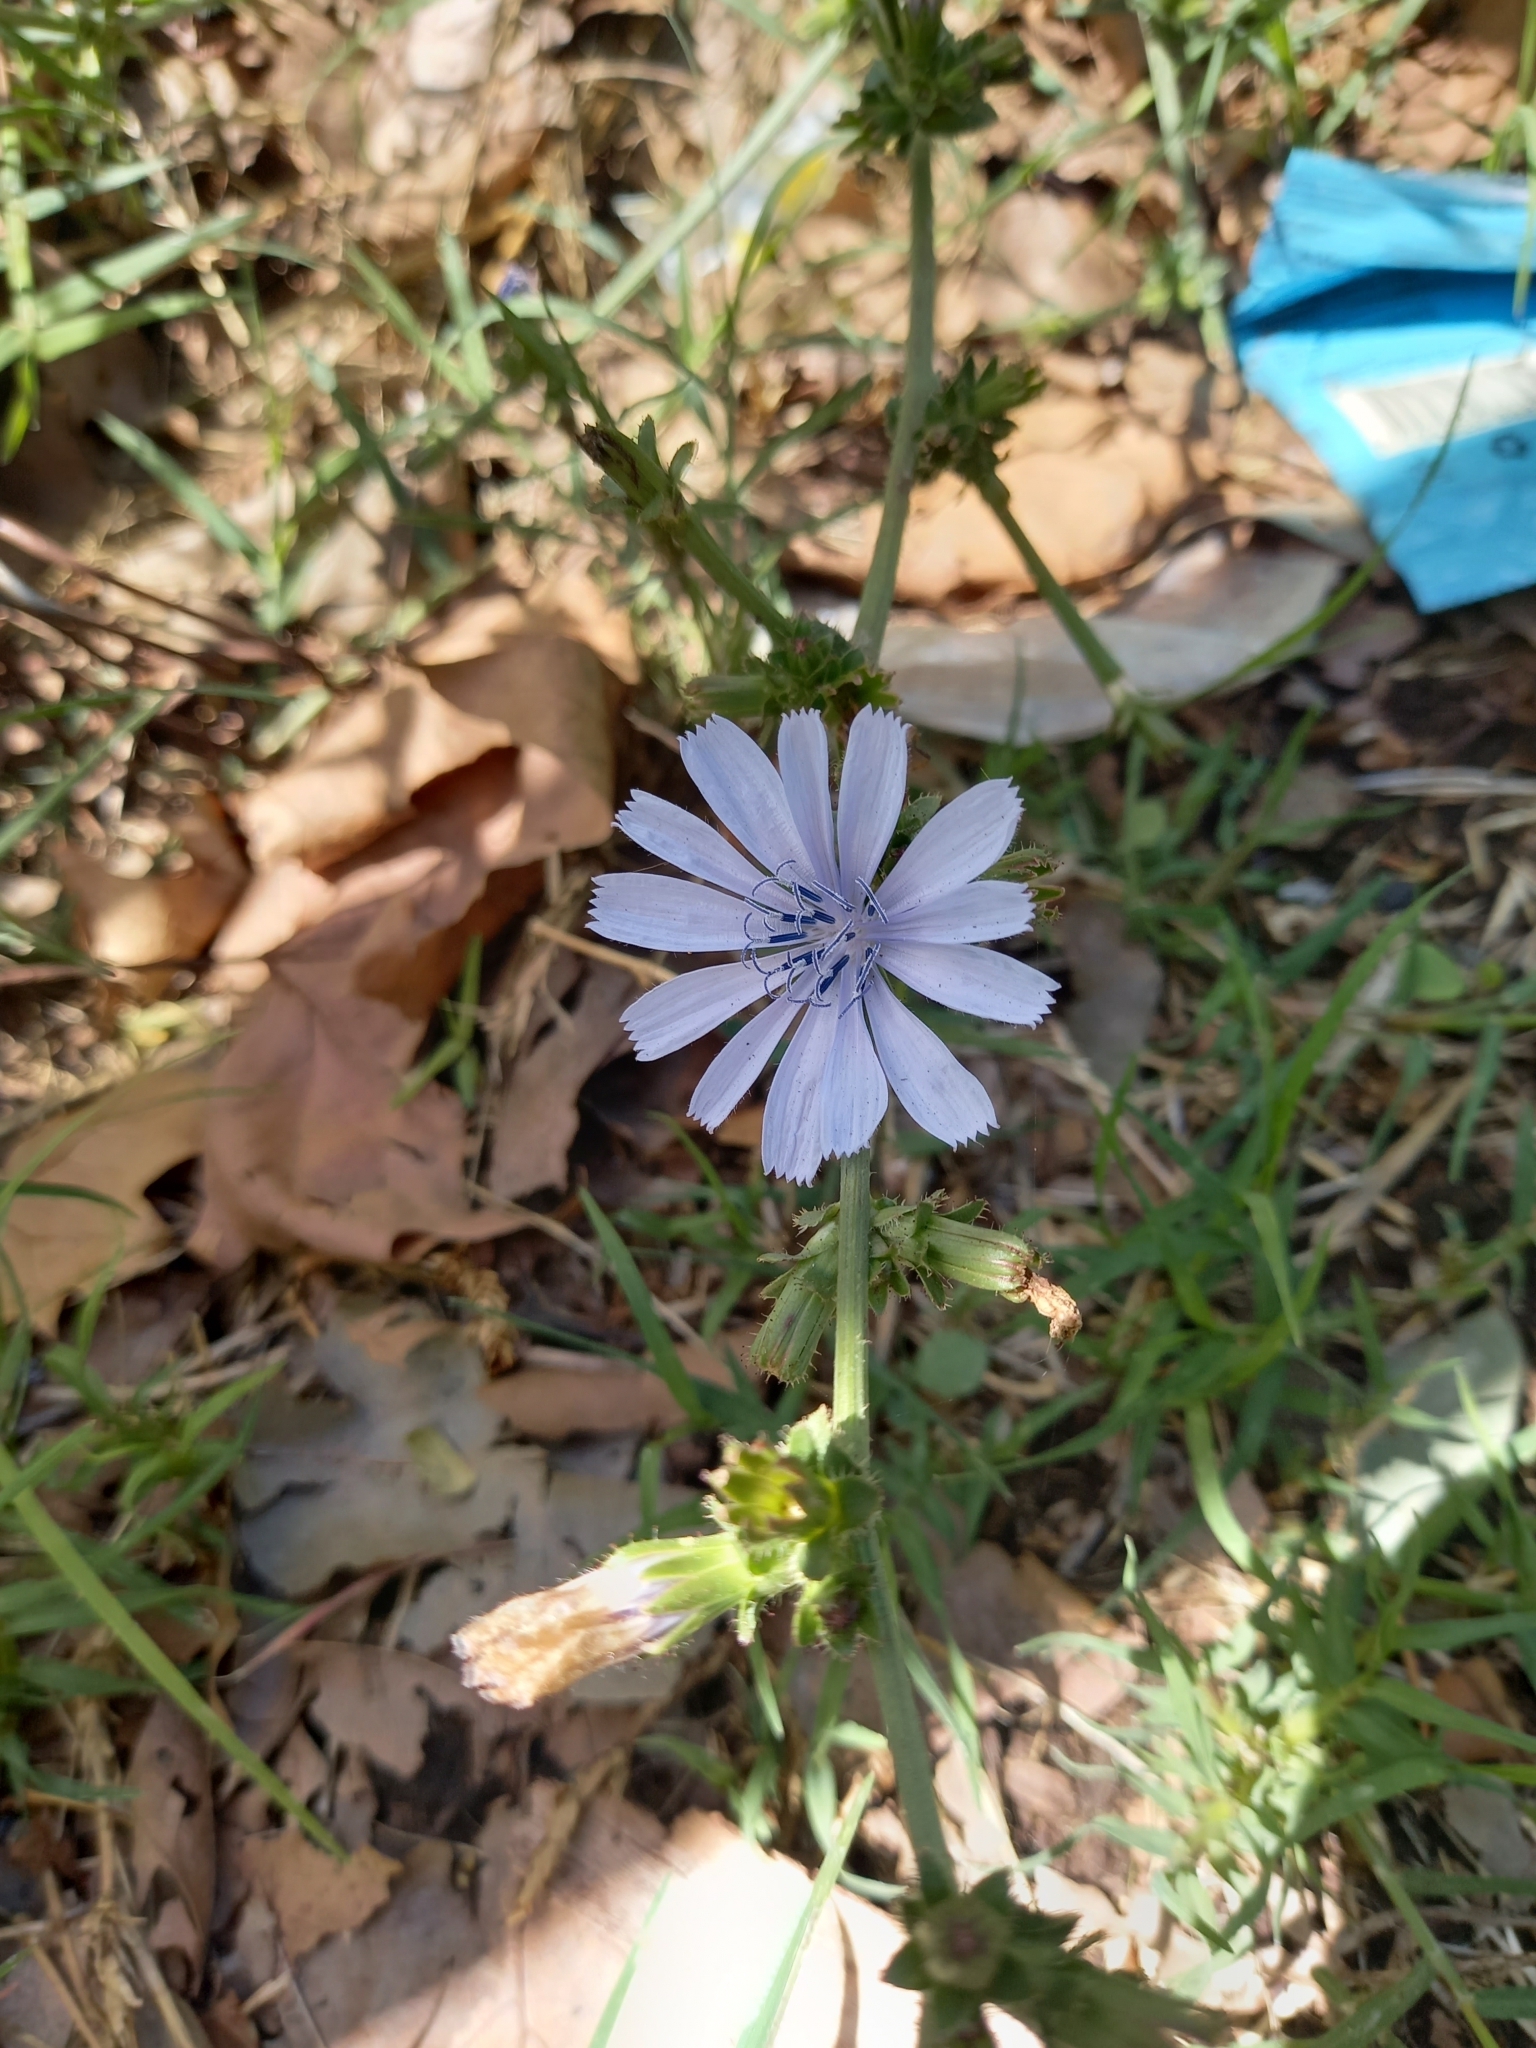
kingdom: Plantae
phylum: Tracheophyta
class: Magnoliopsida
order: Asterales
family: Asteraceae
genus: Cichorium
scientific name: Cichorium intybus
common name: Chicory
